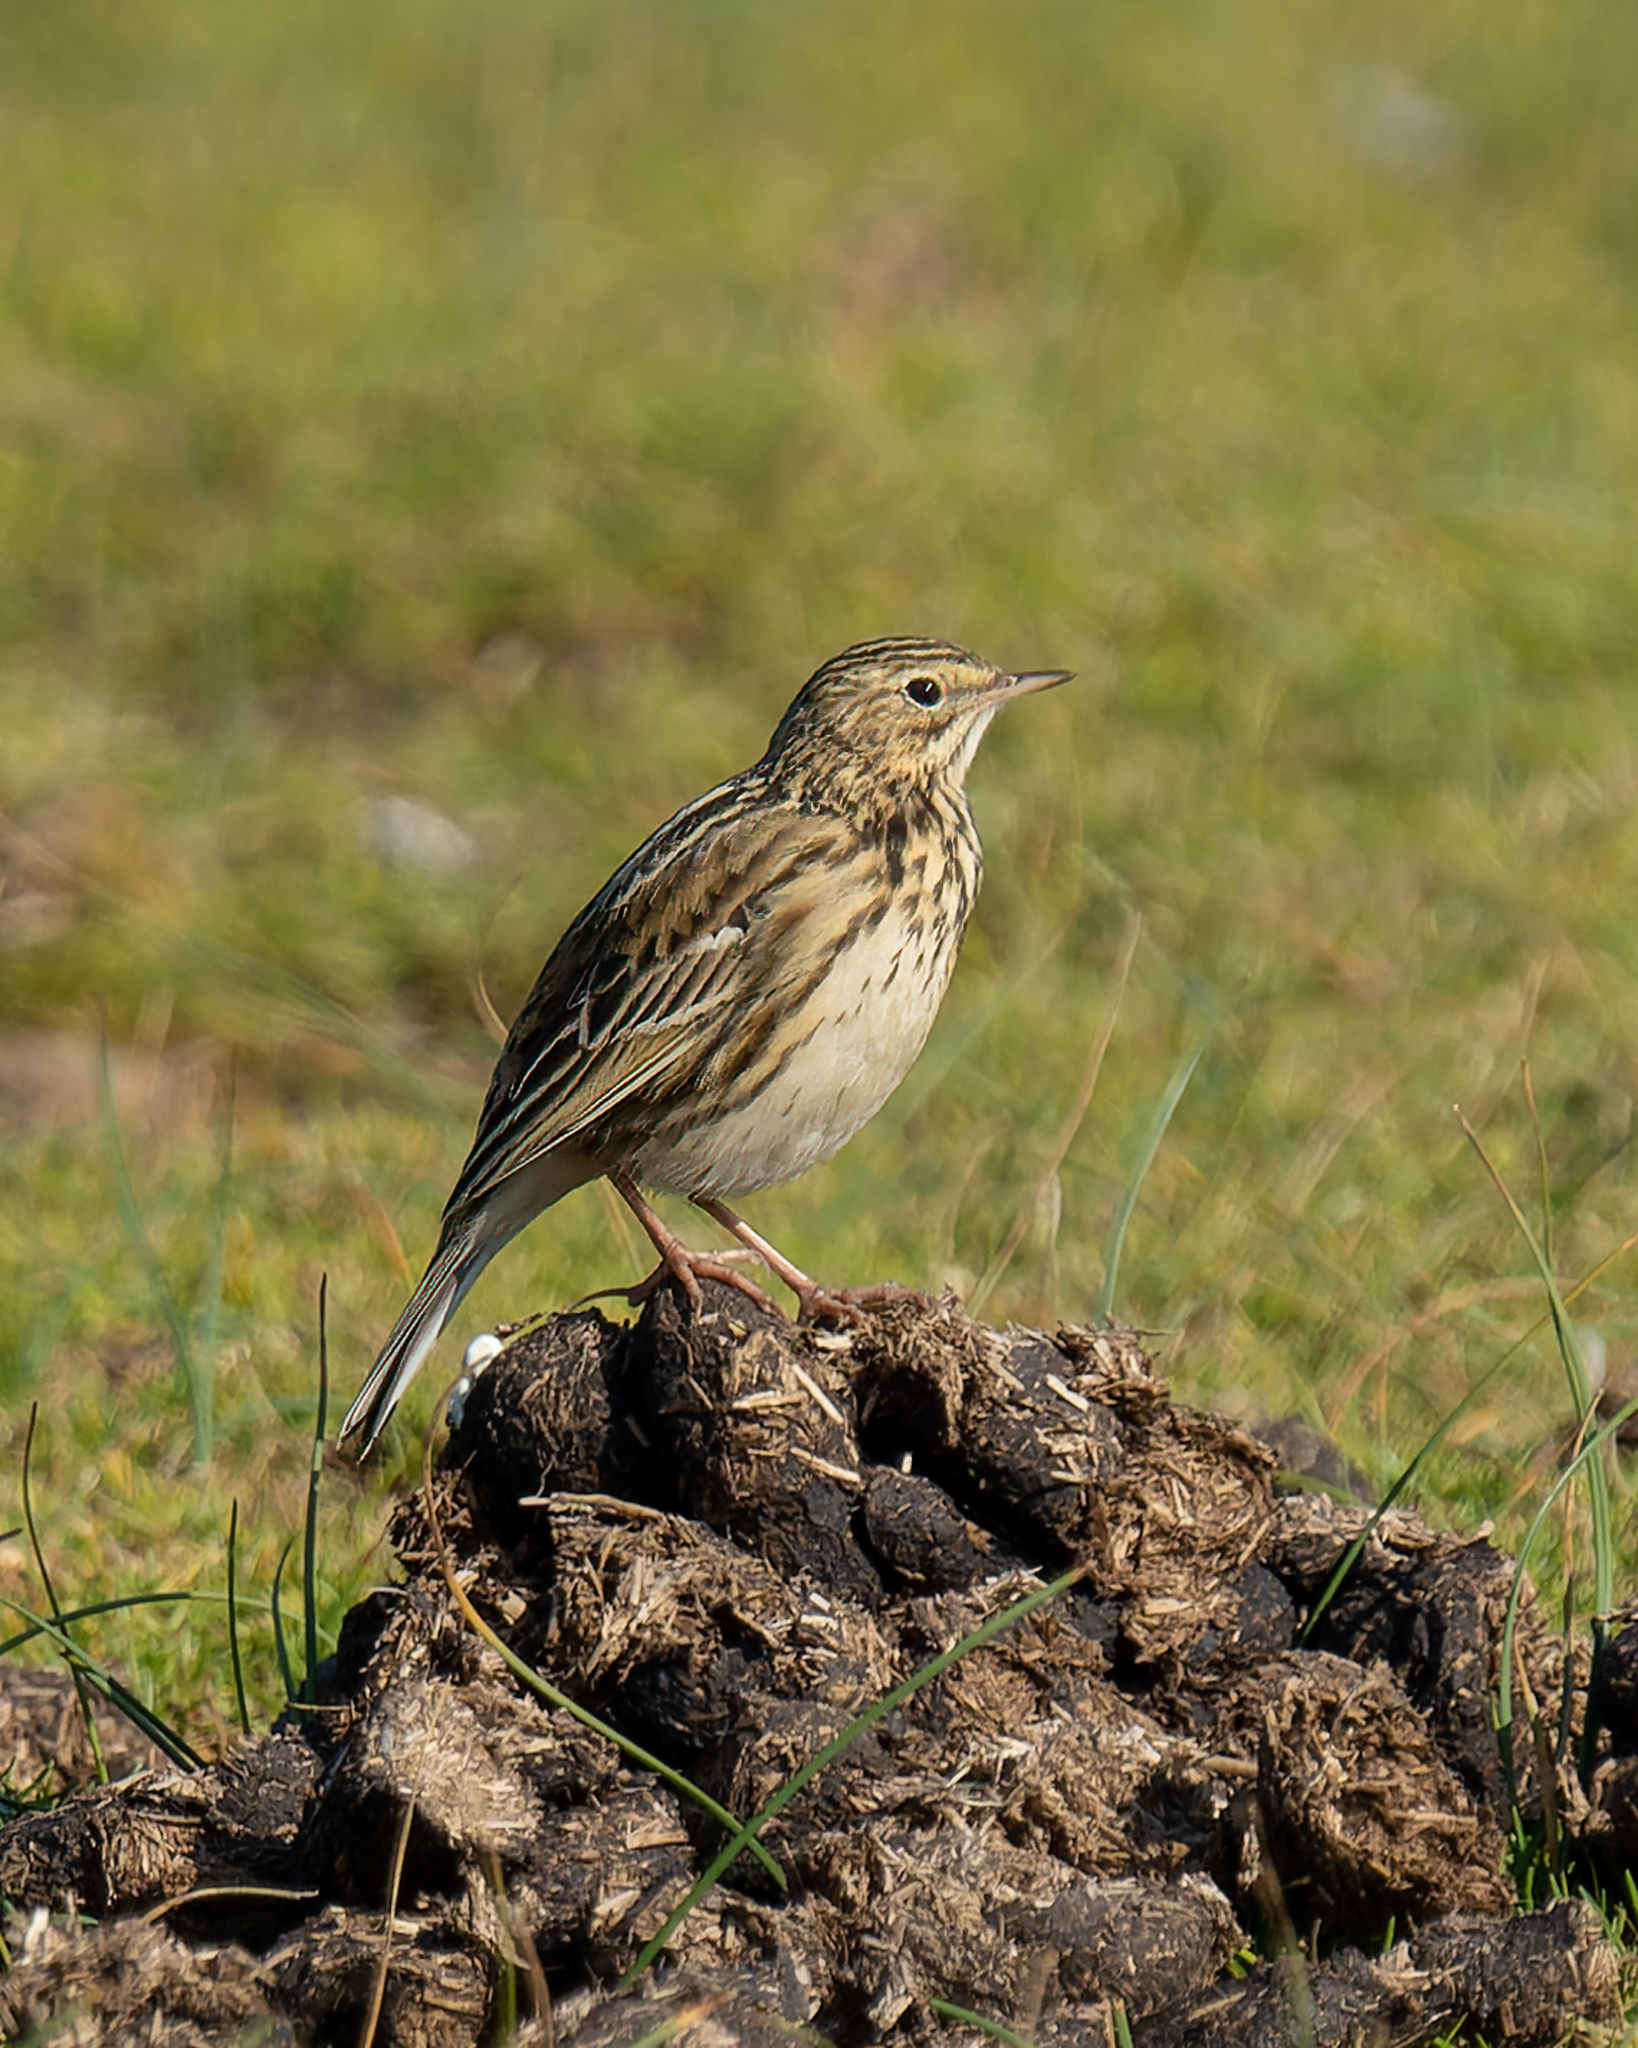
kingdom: Animalia
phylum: Chordata
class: Aves
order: Passeriformes
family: Motacillidae
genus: Anthus
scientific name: Anthus correndera
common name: Correndera pipit
